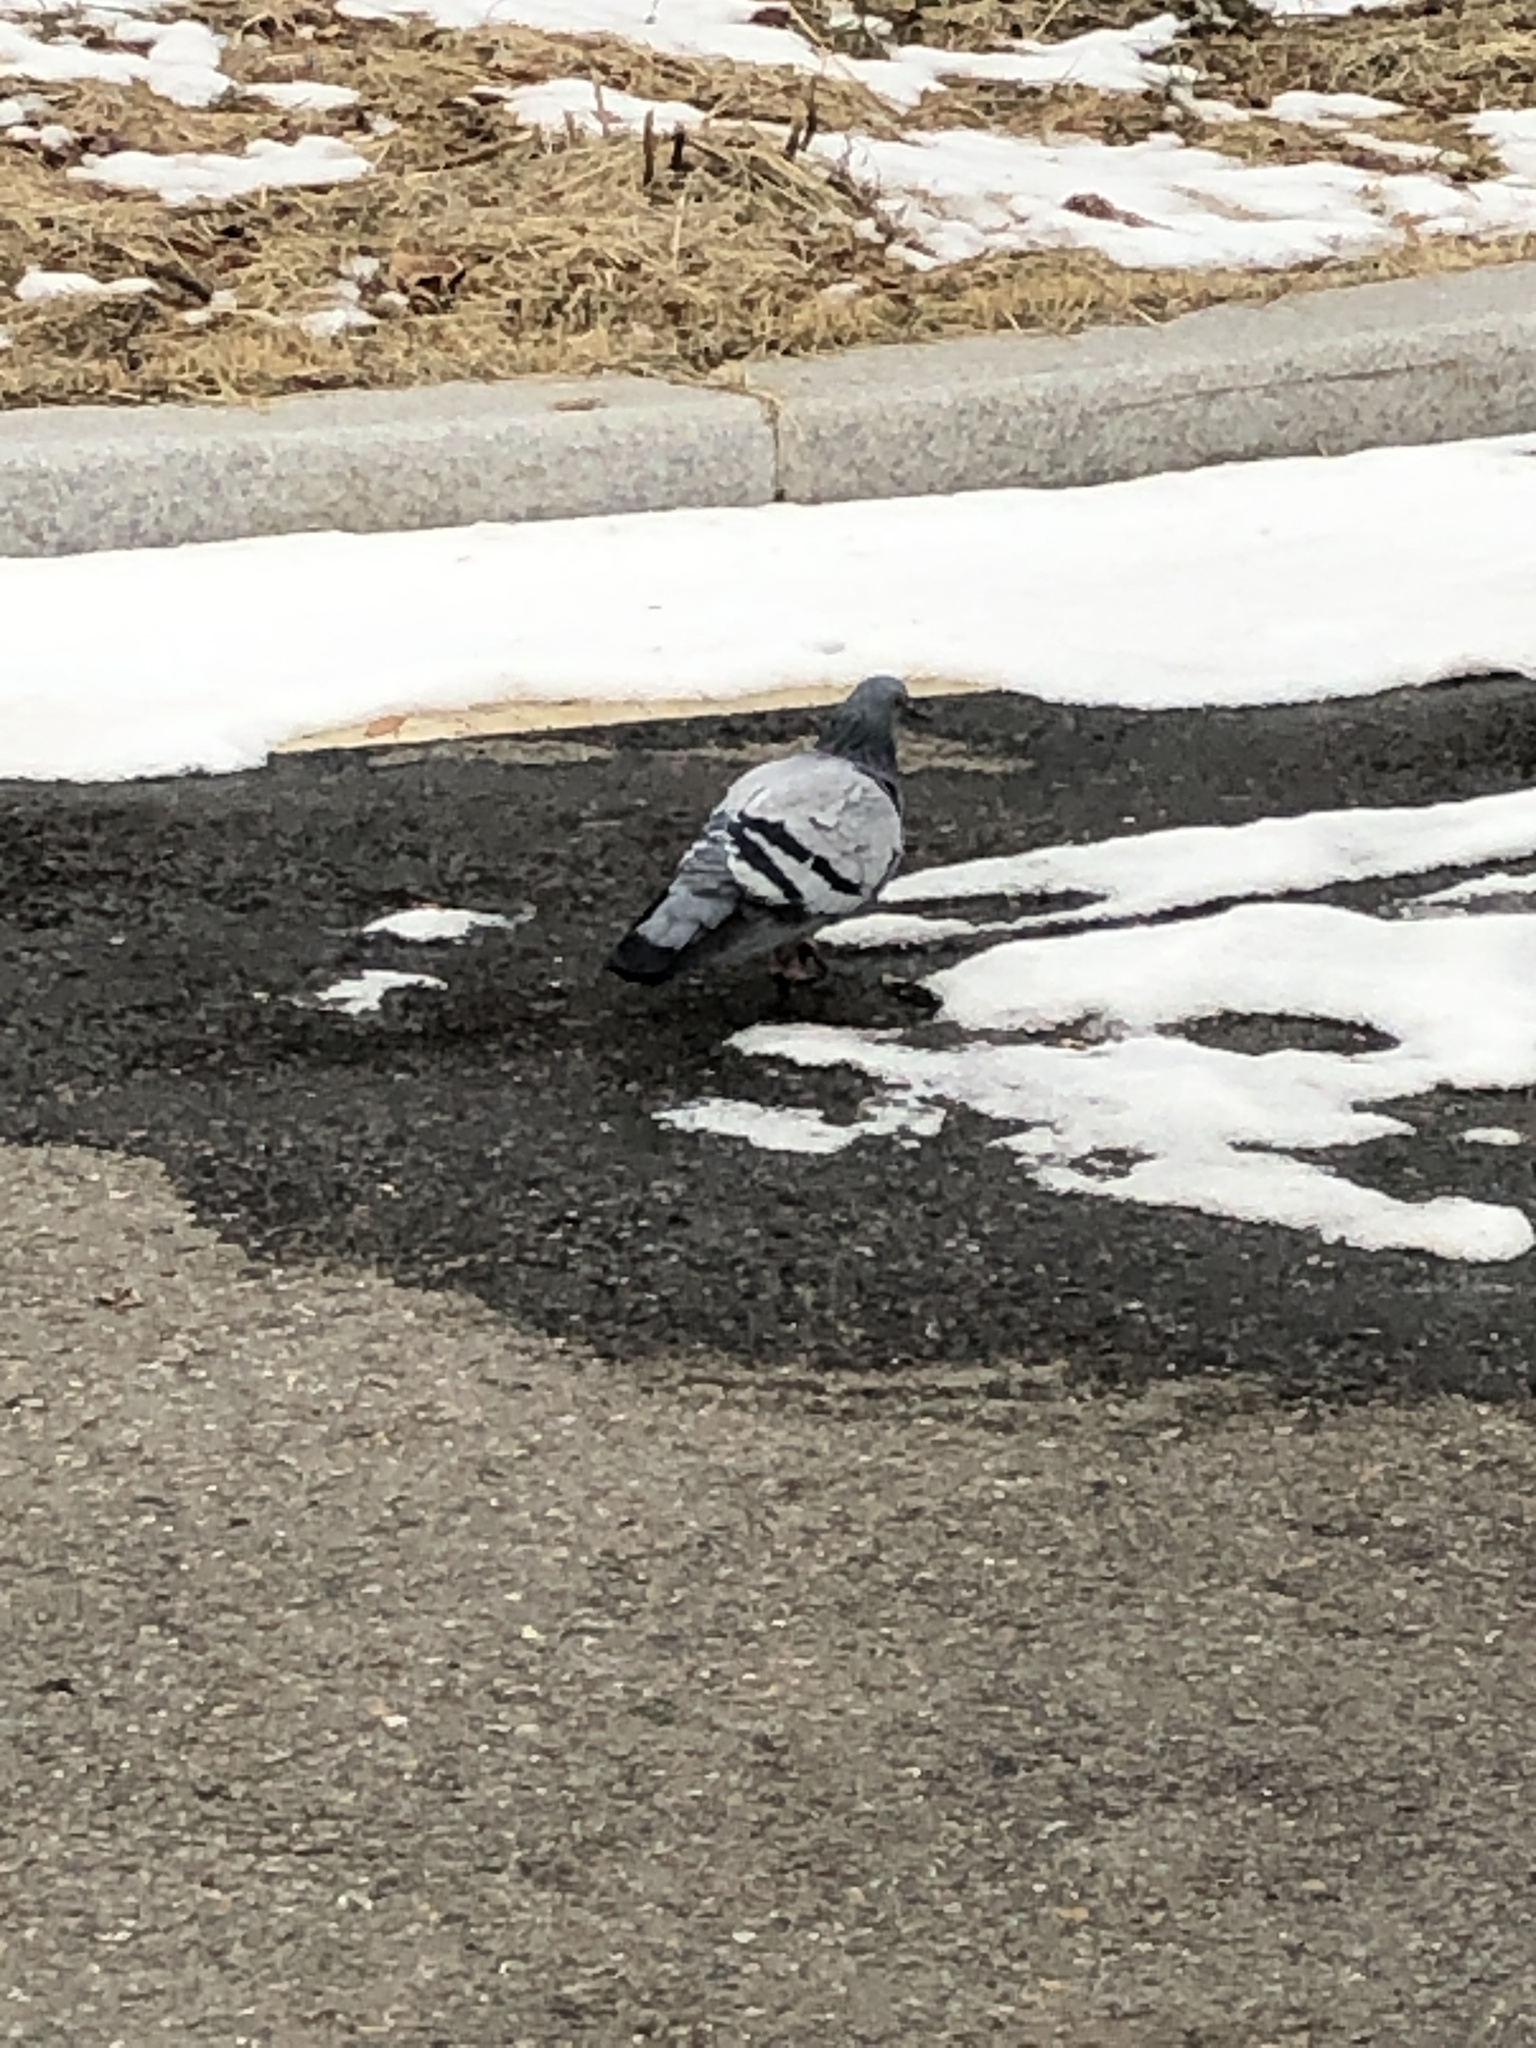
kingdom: Animalia
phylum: Chordata
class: Aves
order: Columbiformes
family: Columbidae
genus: Columba
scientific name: Columba livia
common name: Rock pigeon
